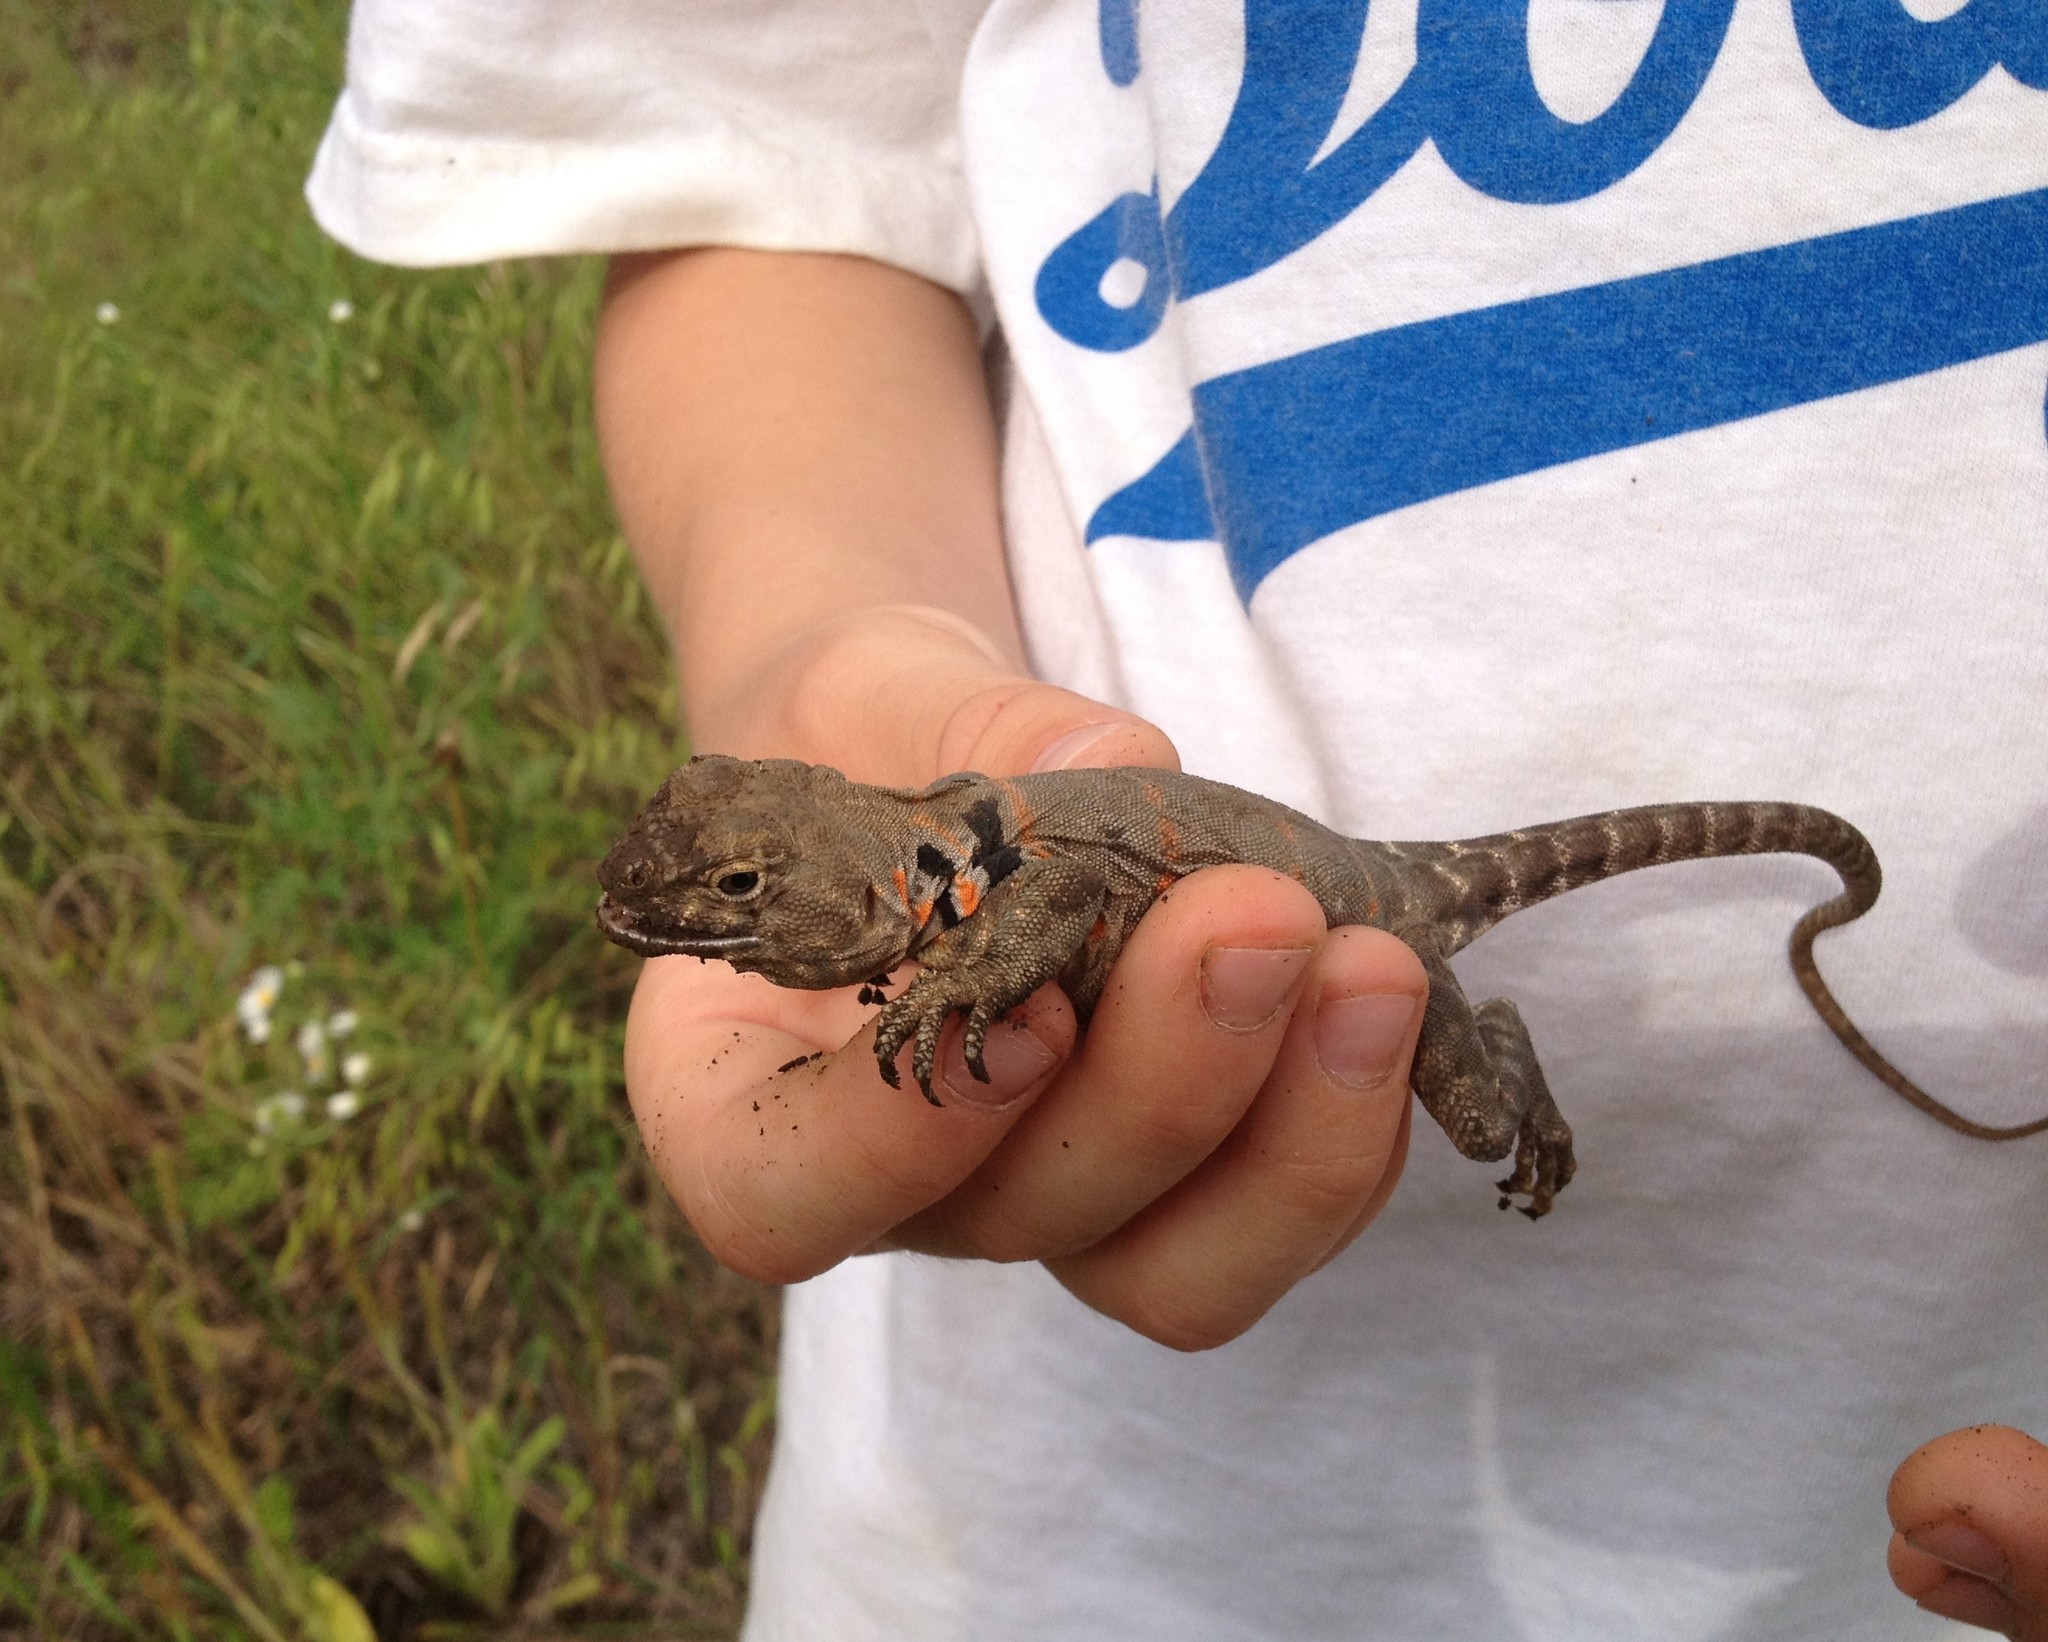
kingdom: Animalia
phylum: Chordata
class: Squamata
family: Crotaphytidae
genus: Crotaphytus
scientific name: Crotaphytus collaris
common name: Collared lizard
